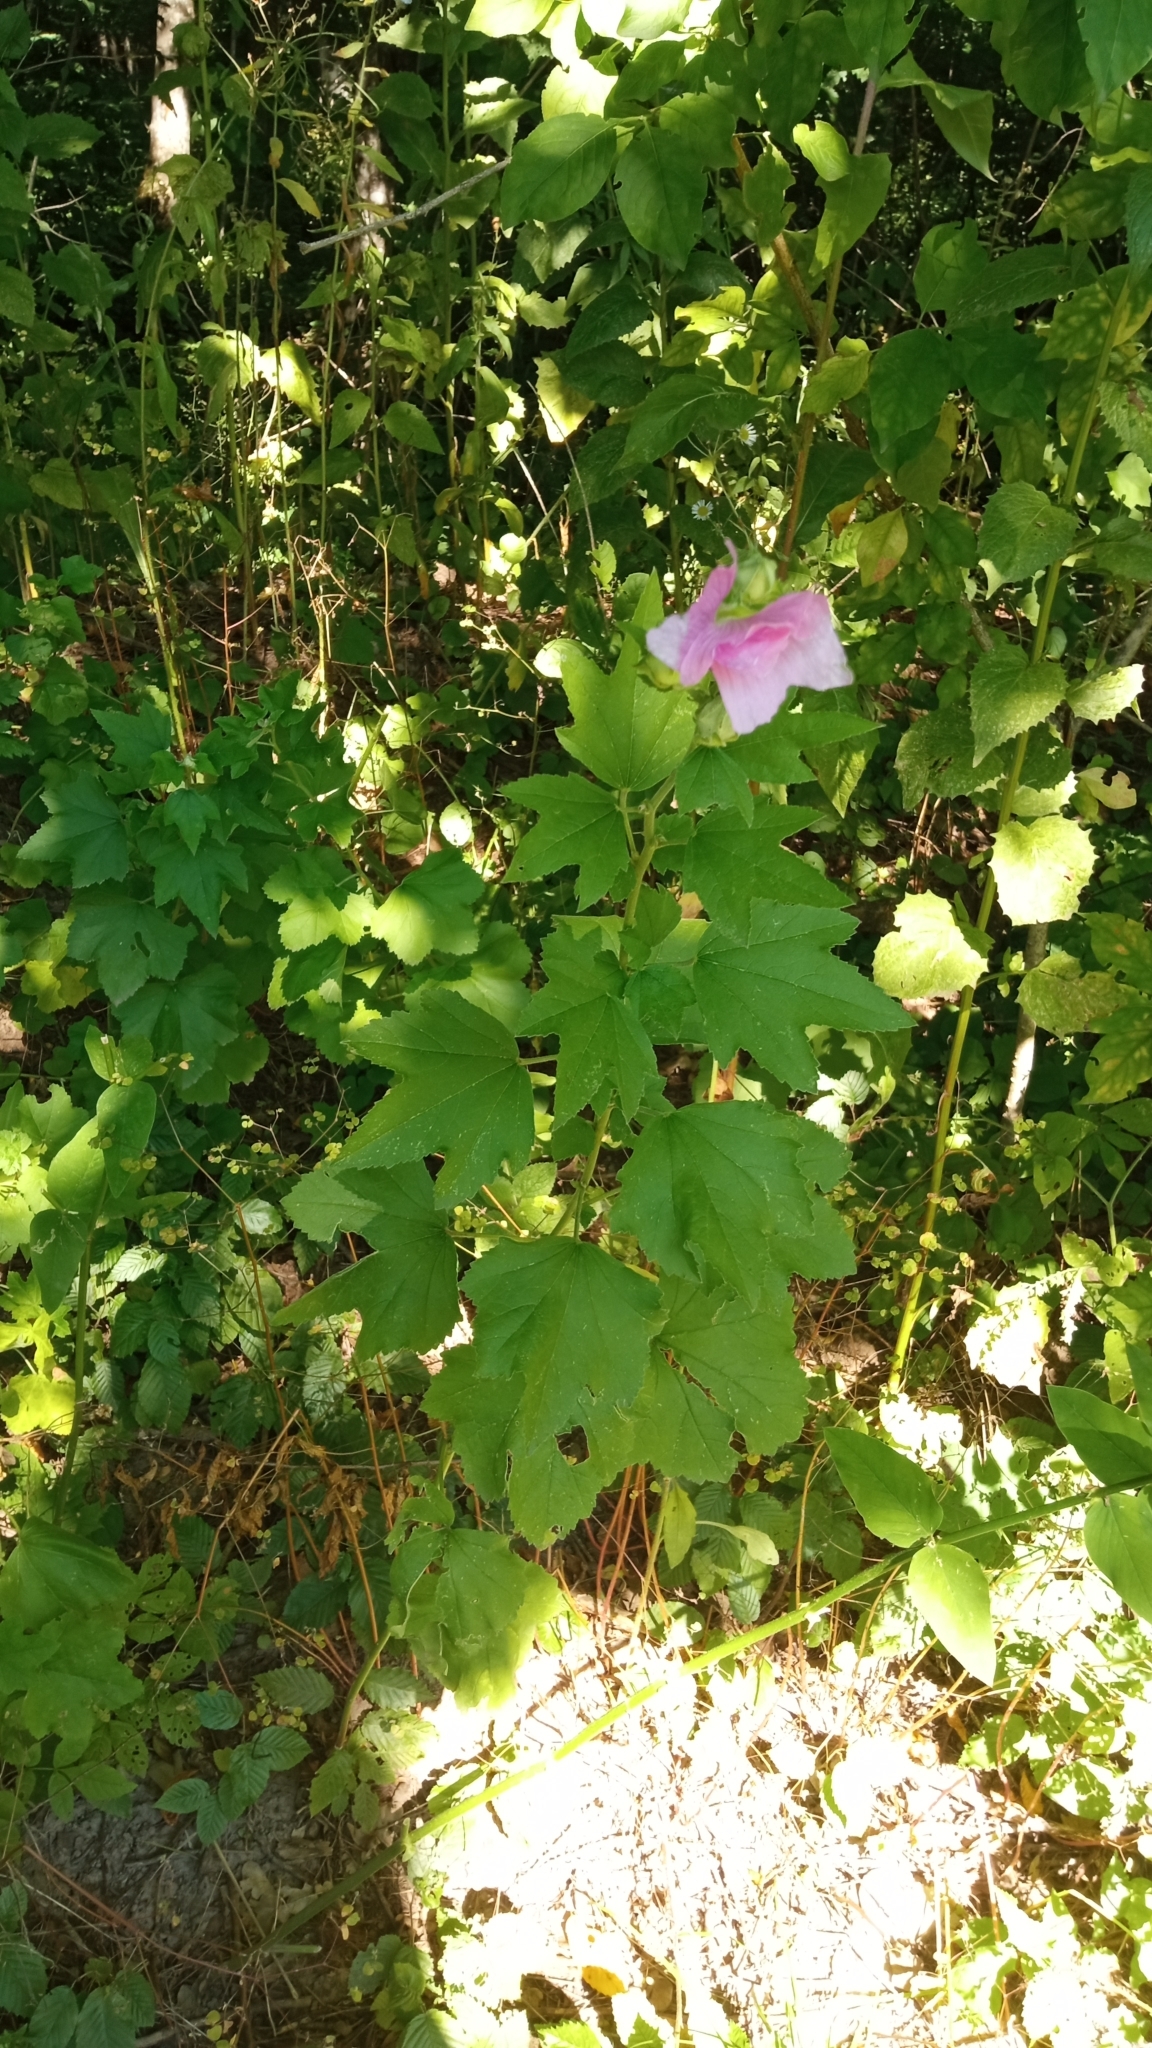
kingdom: Plantae
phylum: Tracheophyta
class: Magnoliopsida
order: Malvales
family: Malvaceae
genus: Alcea
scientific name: Alcea rosea
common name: Hollyhock
